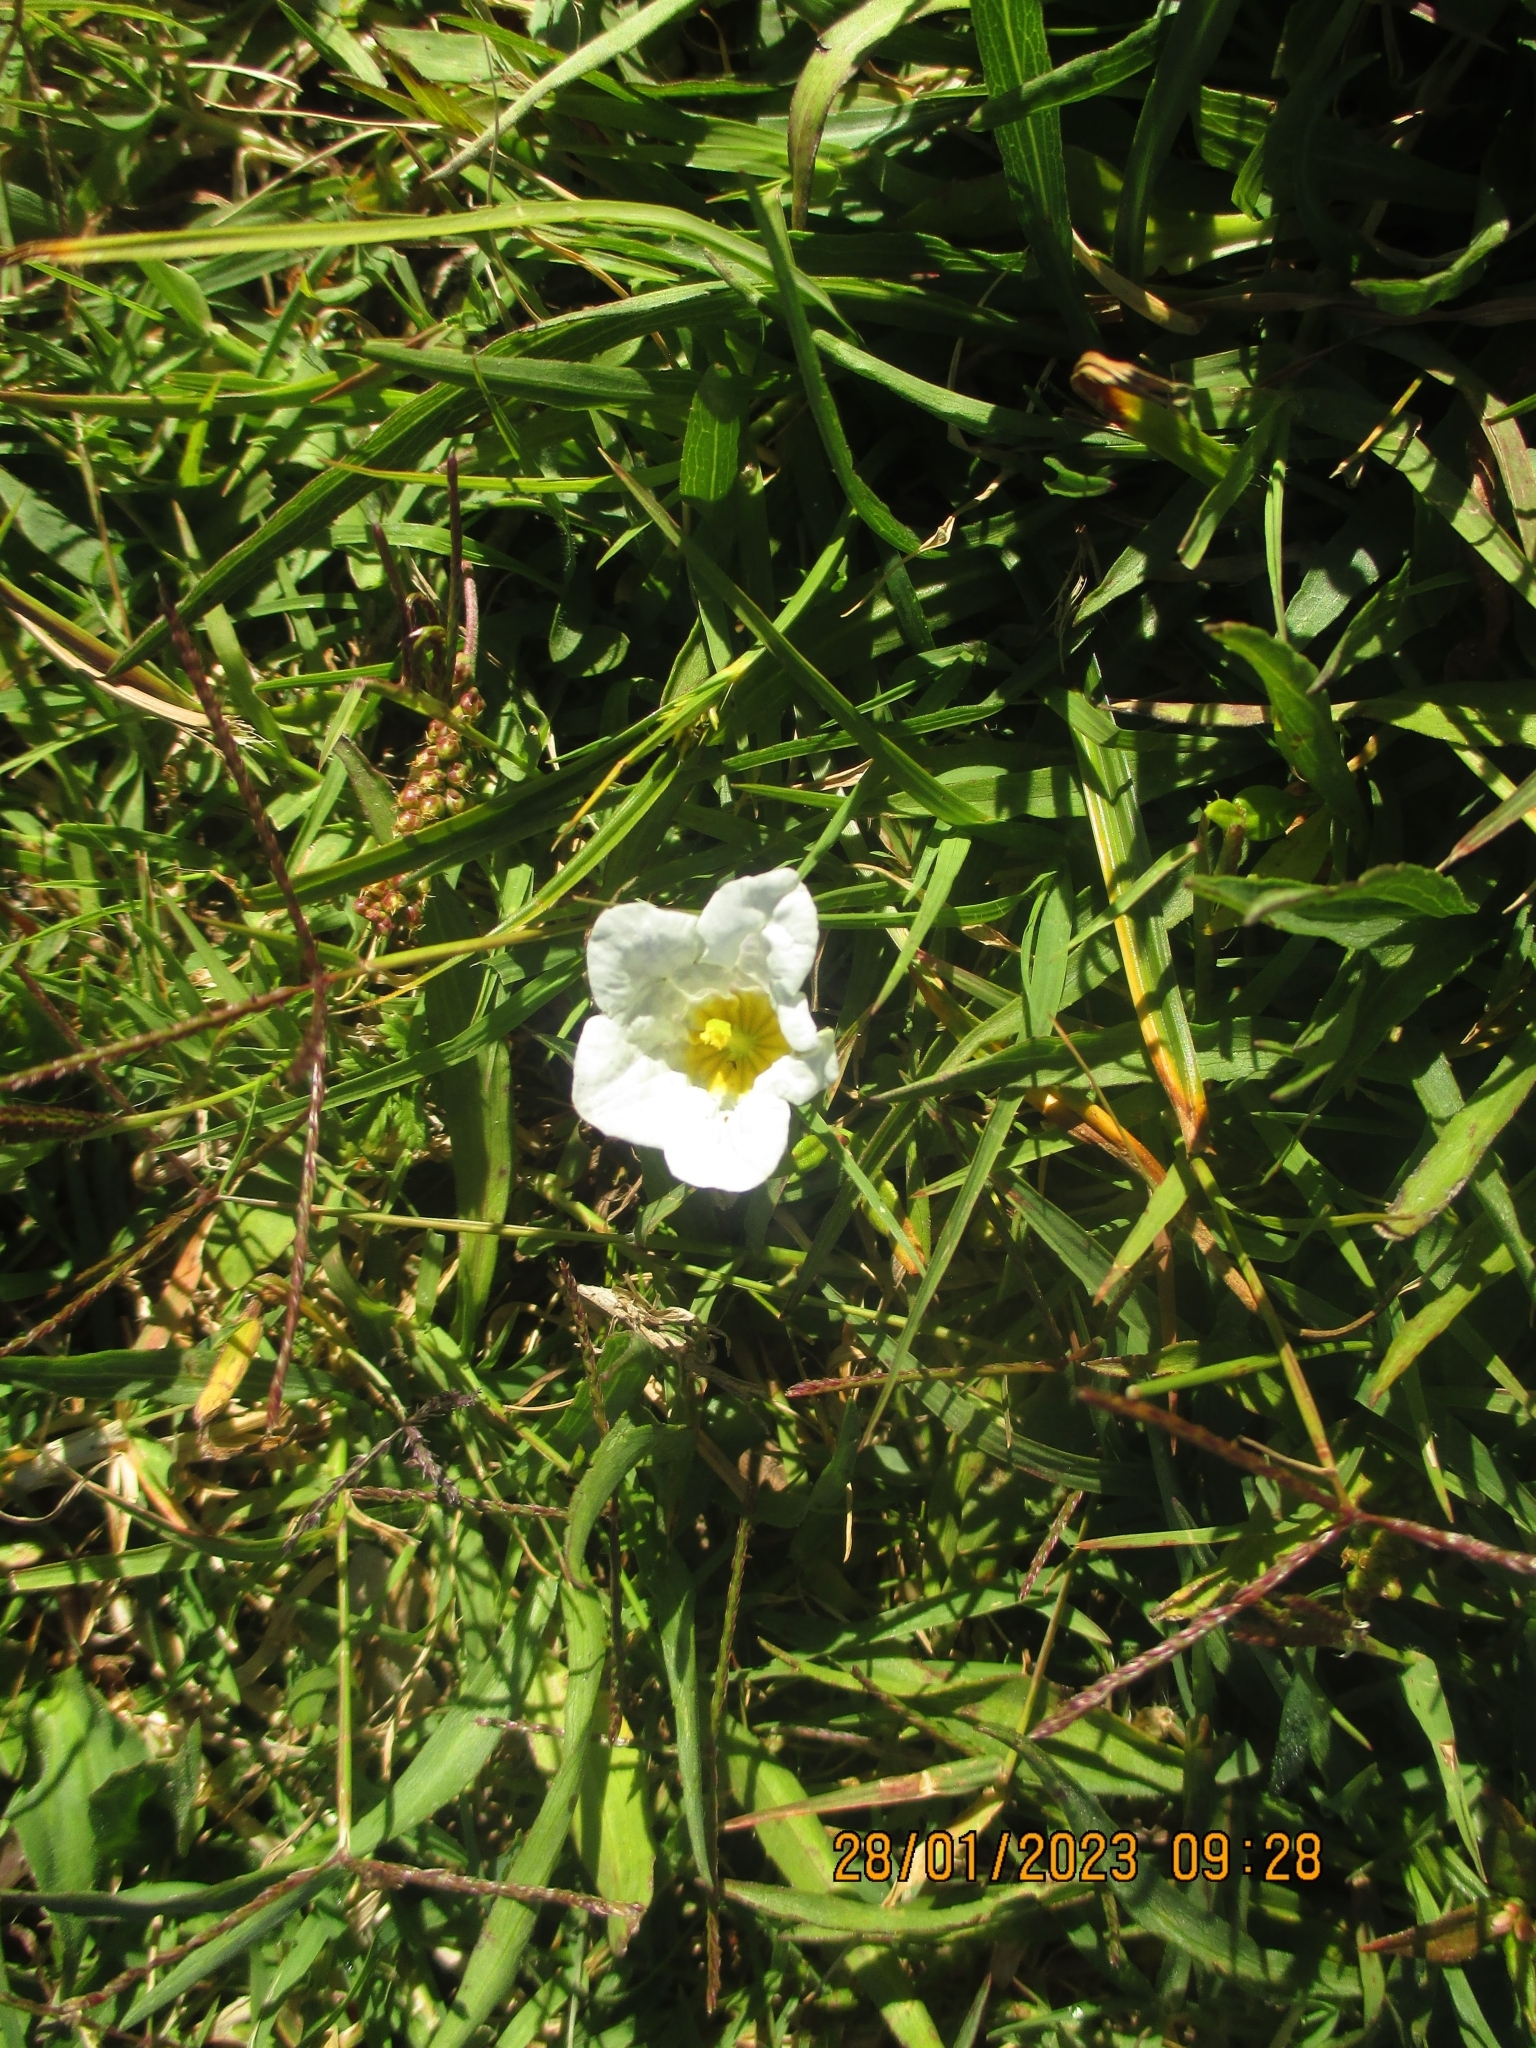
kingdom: Plantae
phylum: Tracheophyta
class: Magnoliopsida
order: Solanales
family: Solanaceae
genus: Nierembergia
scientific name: Nierembergia repens
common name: Whitecup
